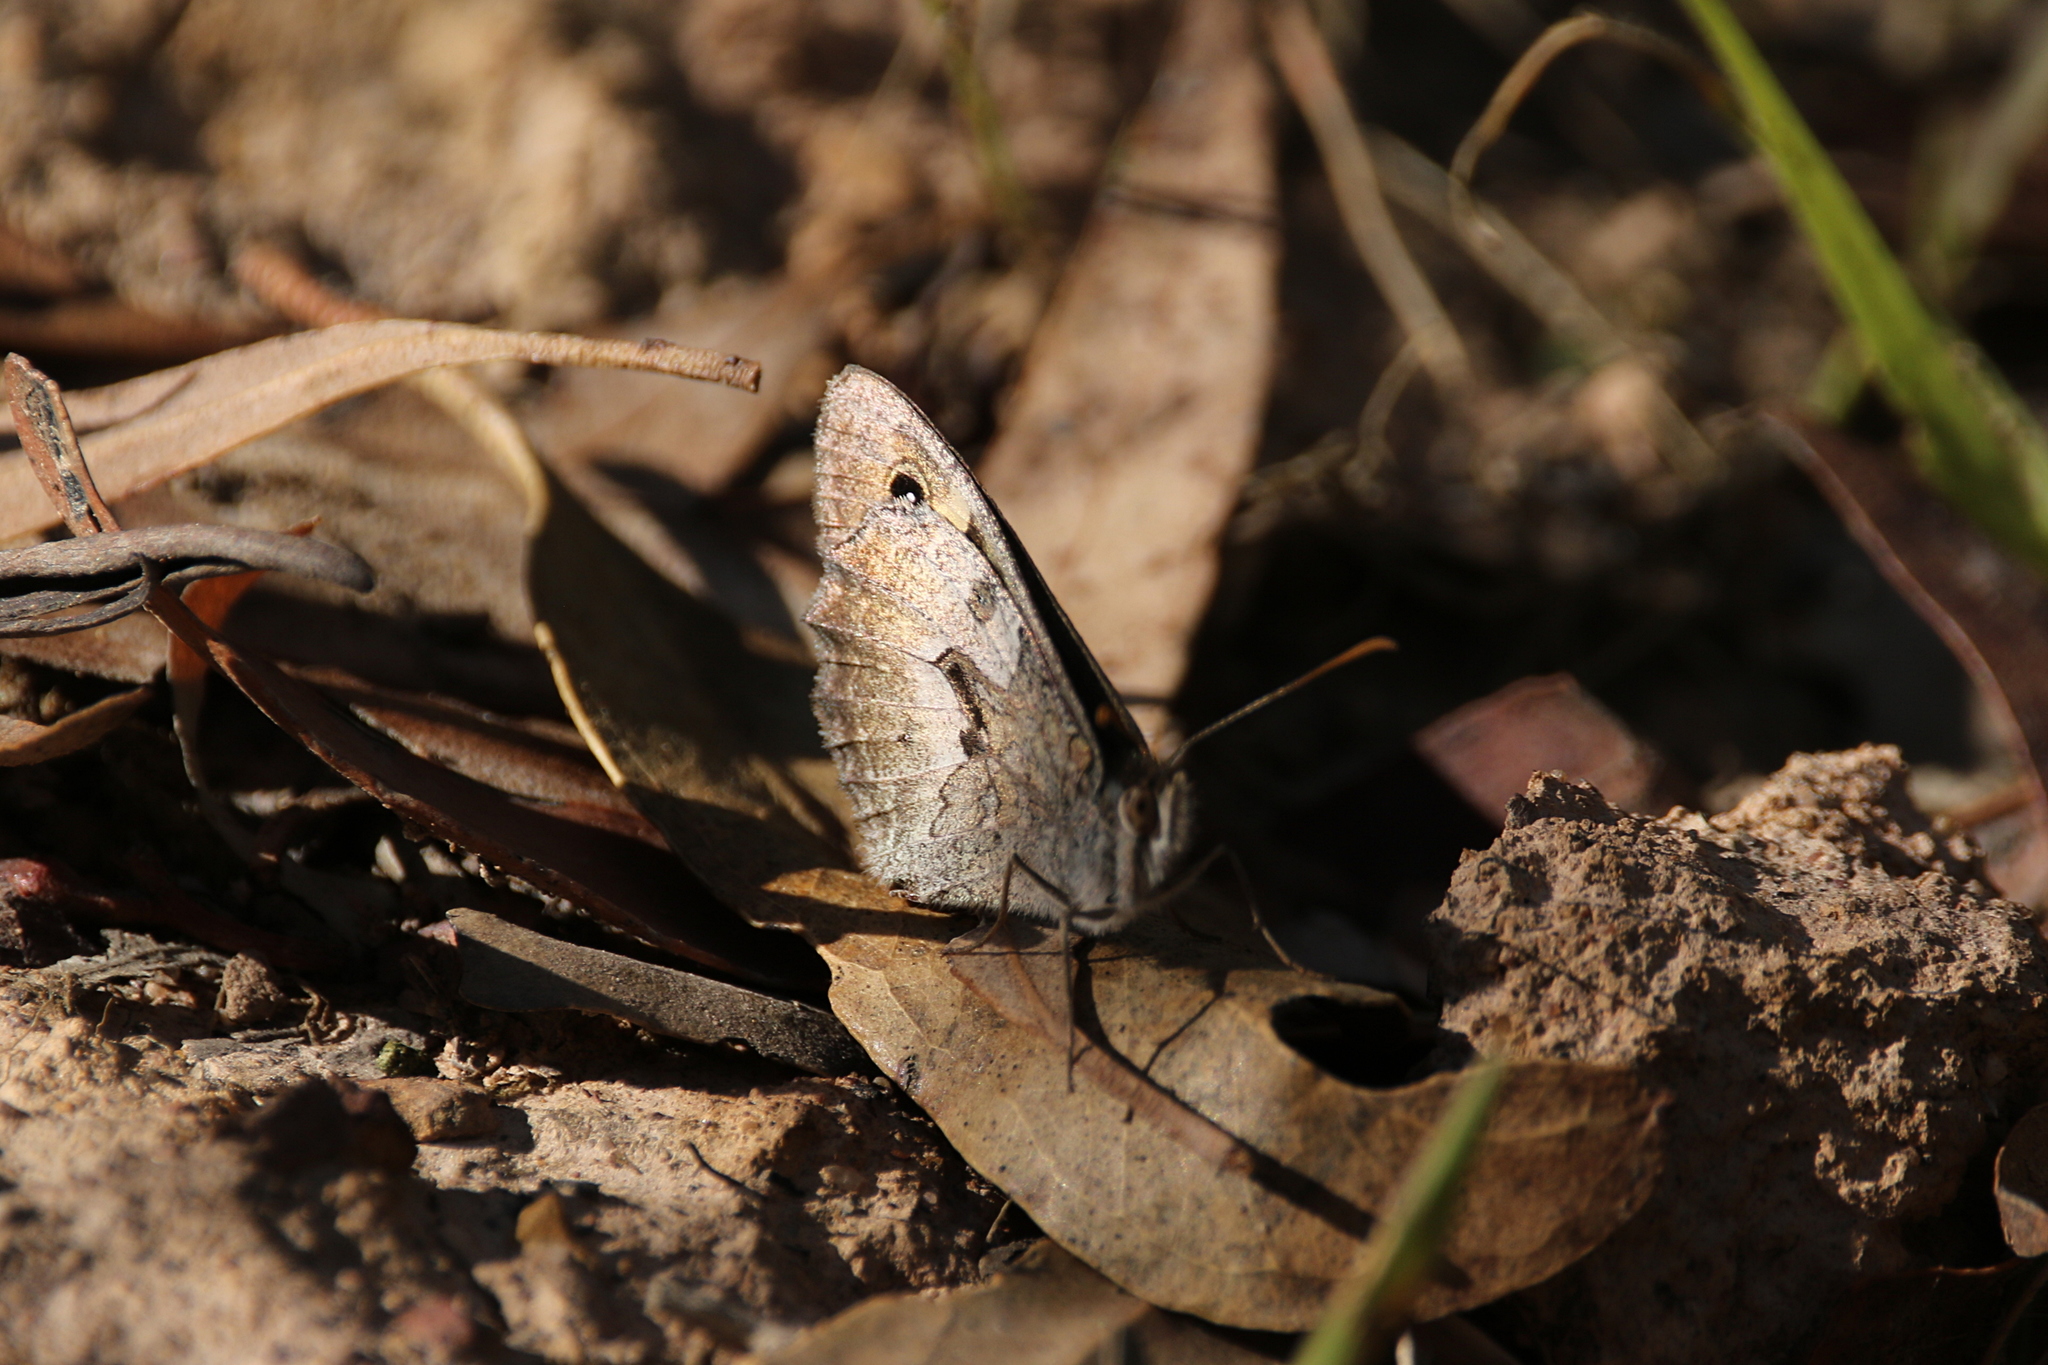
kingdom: Animalia
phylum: Arthropoda
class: Insecta
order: Lepidoptera
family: Nymphalidae
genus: Geitoneura
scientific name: Geitoneura klugii
